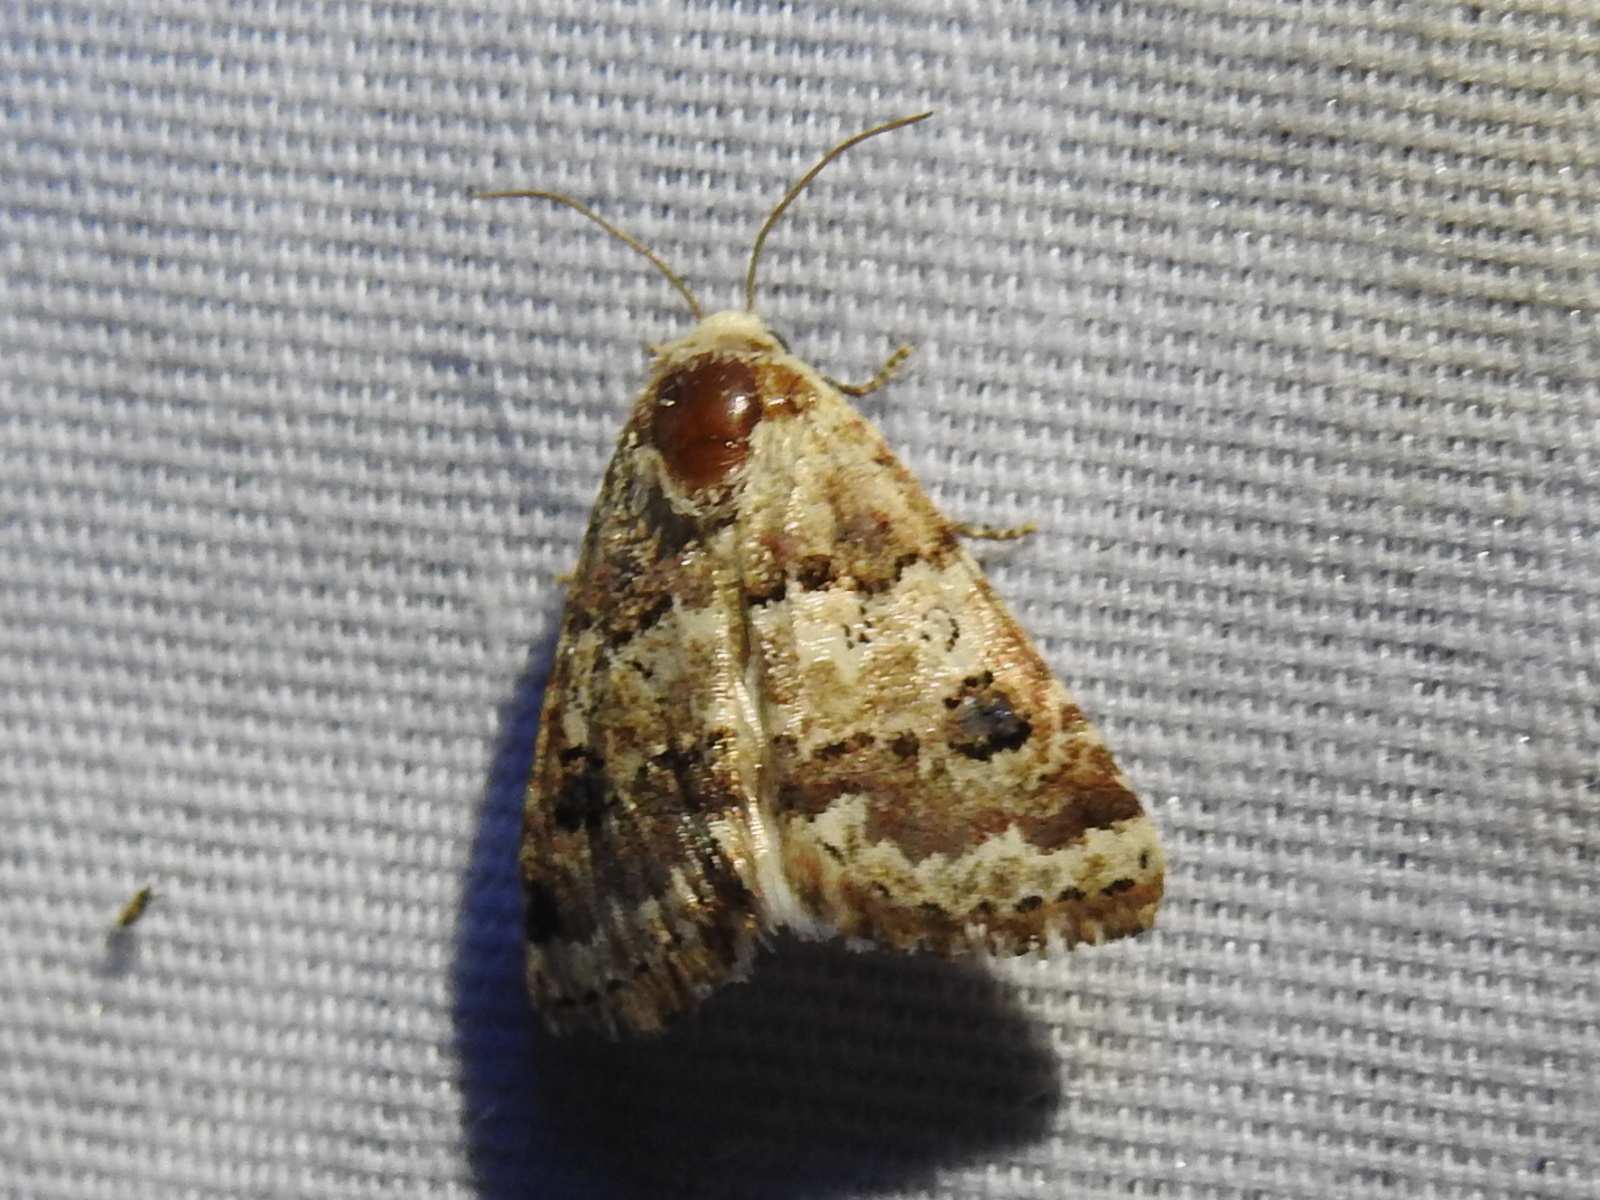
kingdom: Animalia
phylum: Arthropoda
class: Insecta
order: Lepidoptera
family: Noctuidae
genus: Schinia
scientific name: Schinia tertia
